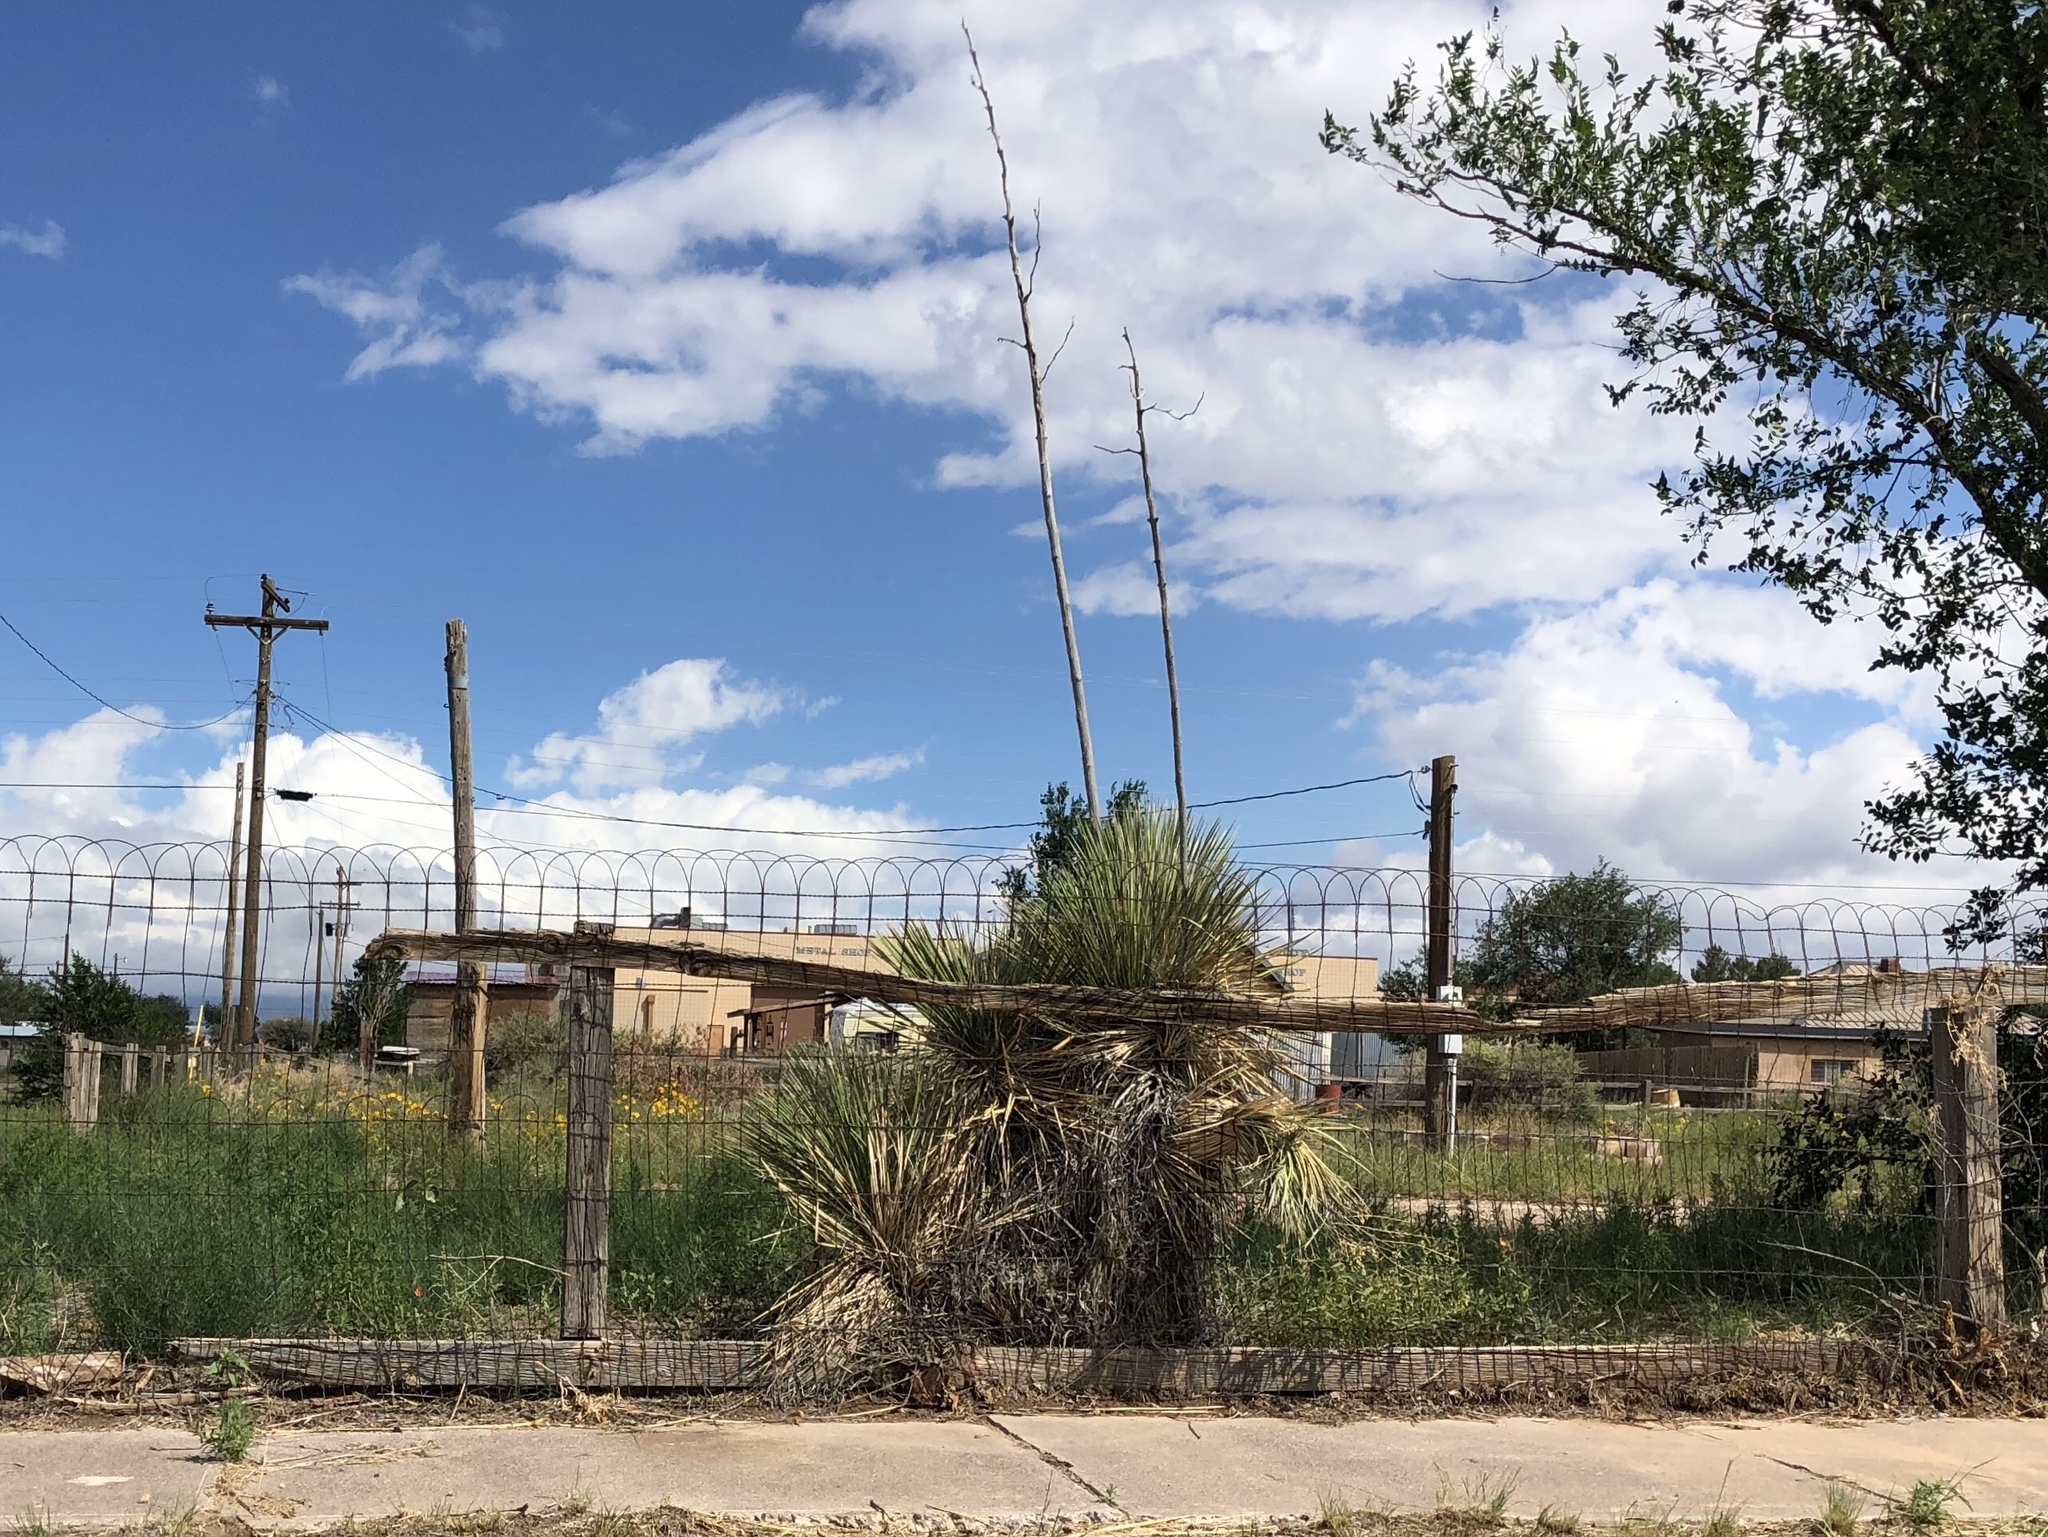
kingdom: Plantae
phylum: Tracheophyta
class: Liliopsida
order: Asparagales
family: Asparagaceae
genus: Yucca
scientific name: Yucca elata
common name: Palmella
